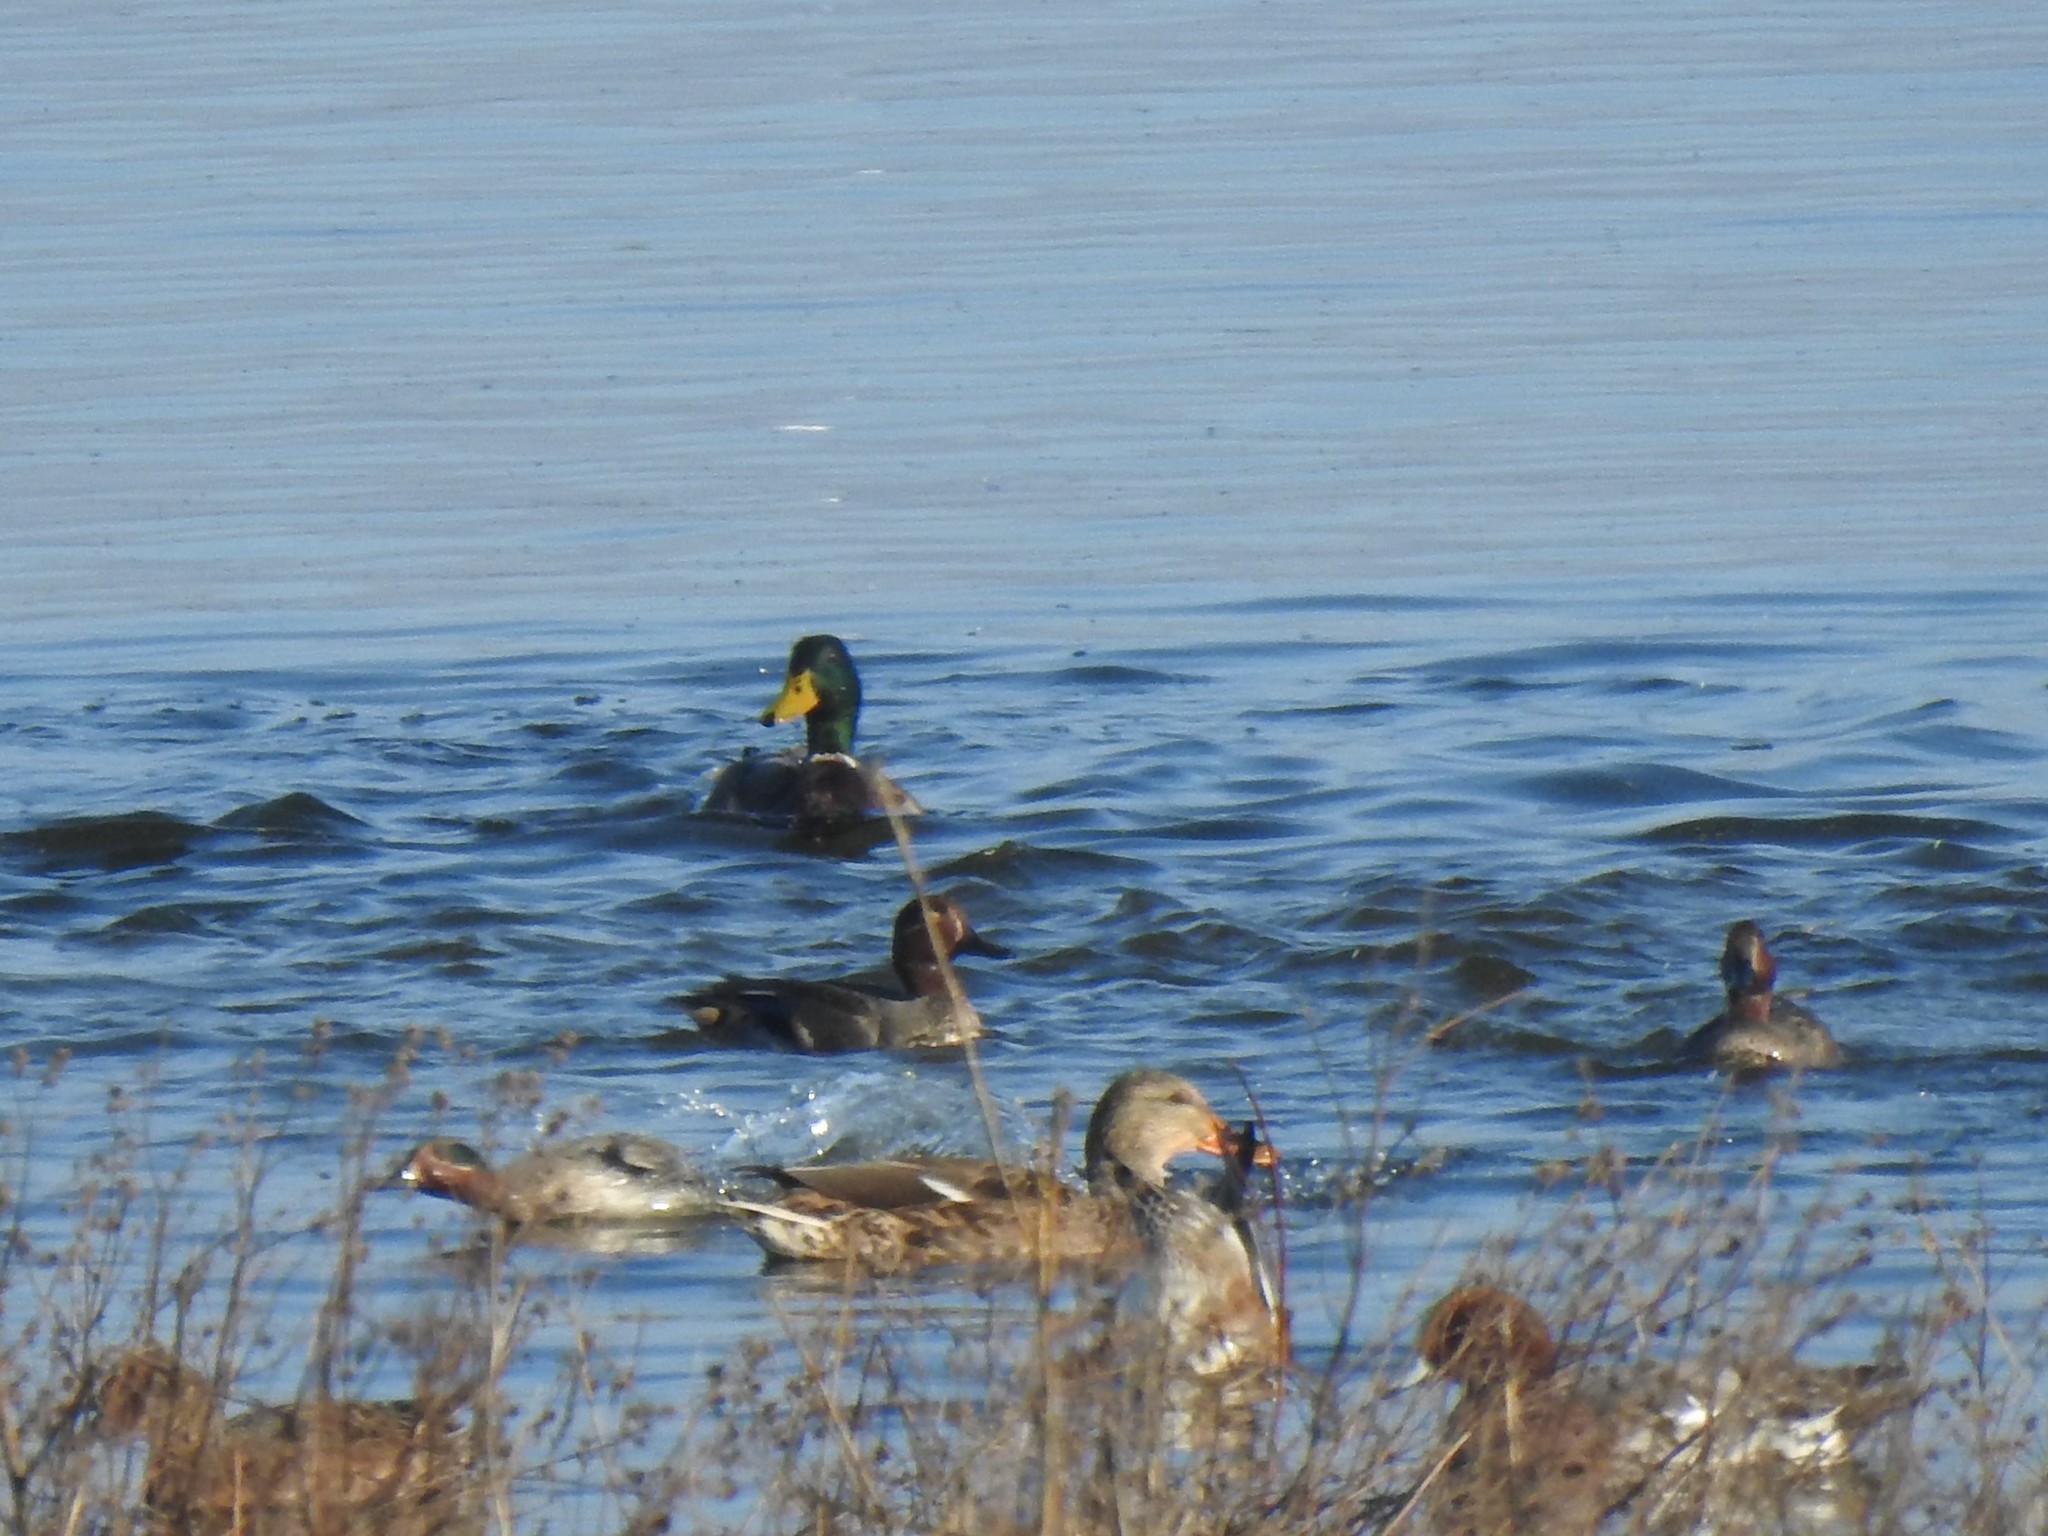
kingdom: Animalia
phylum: Chordata
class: Aves
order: Anseriformes
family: Anatidae
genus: Anas
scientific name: Anas platyrhynchos
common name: Mallard
